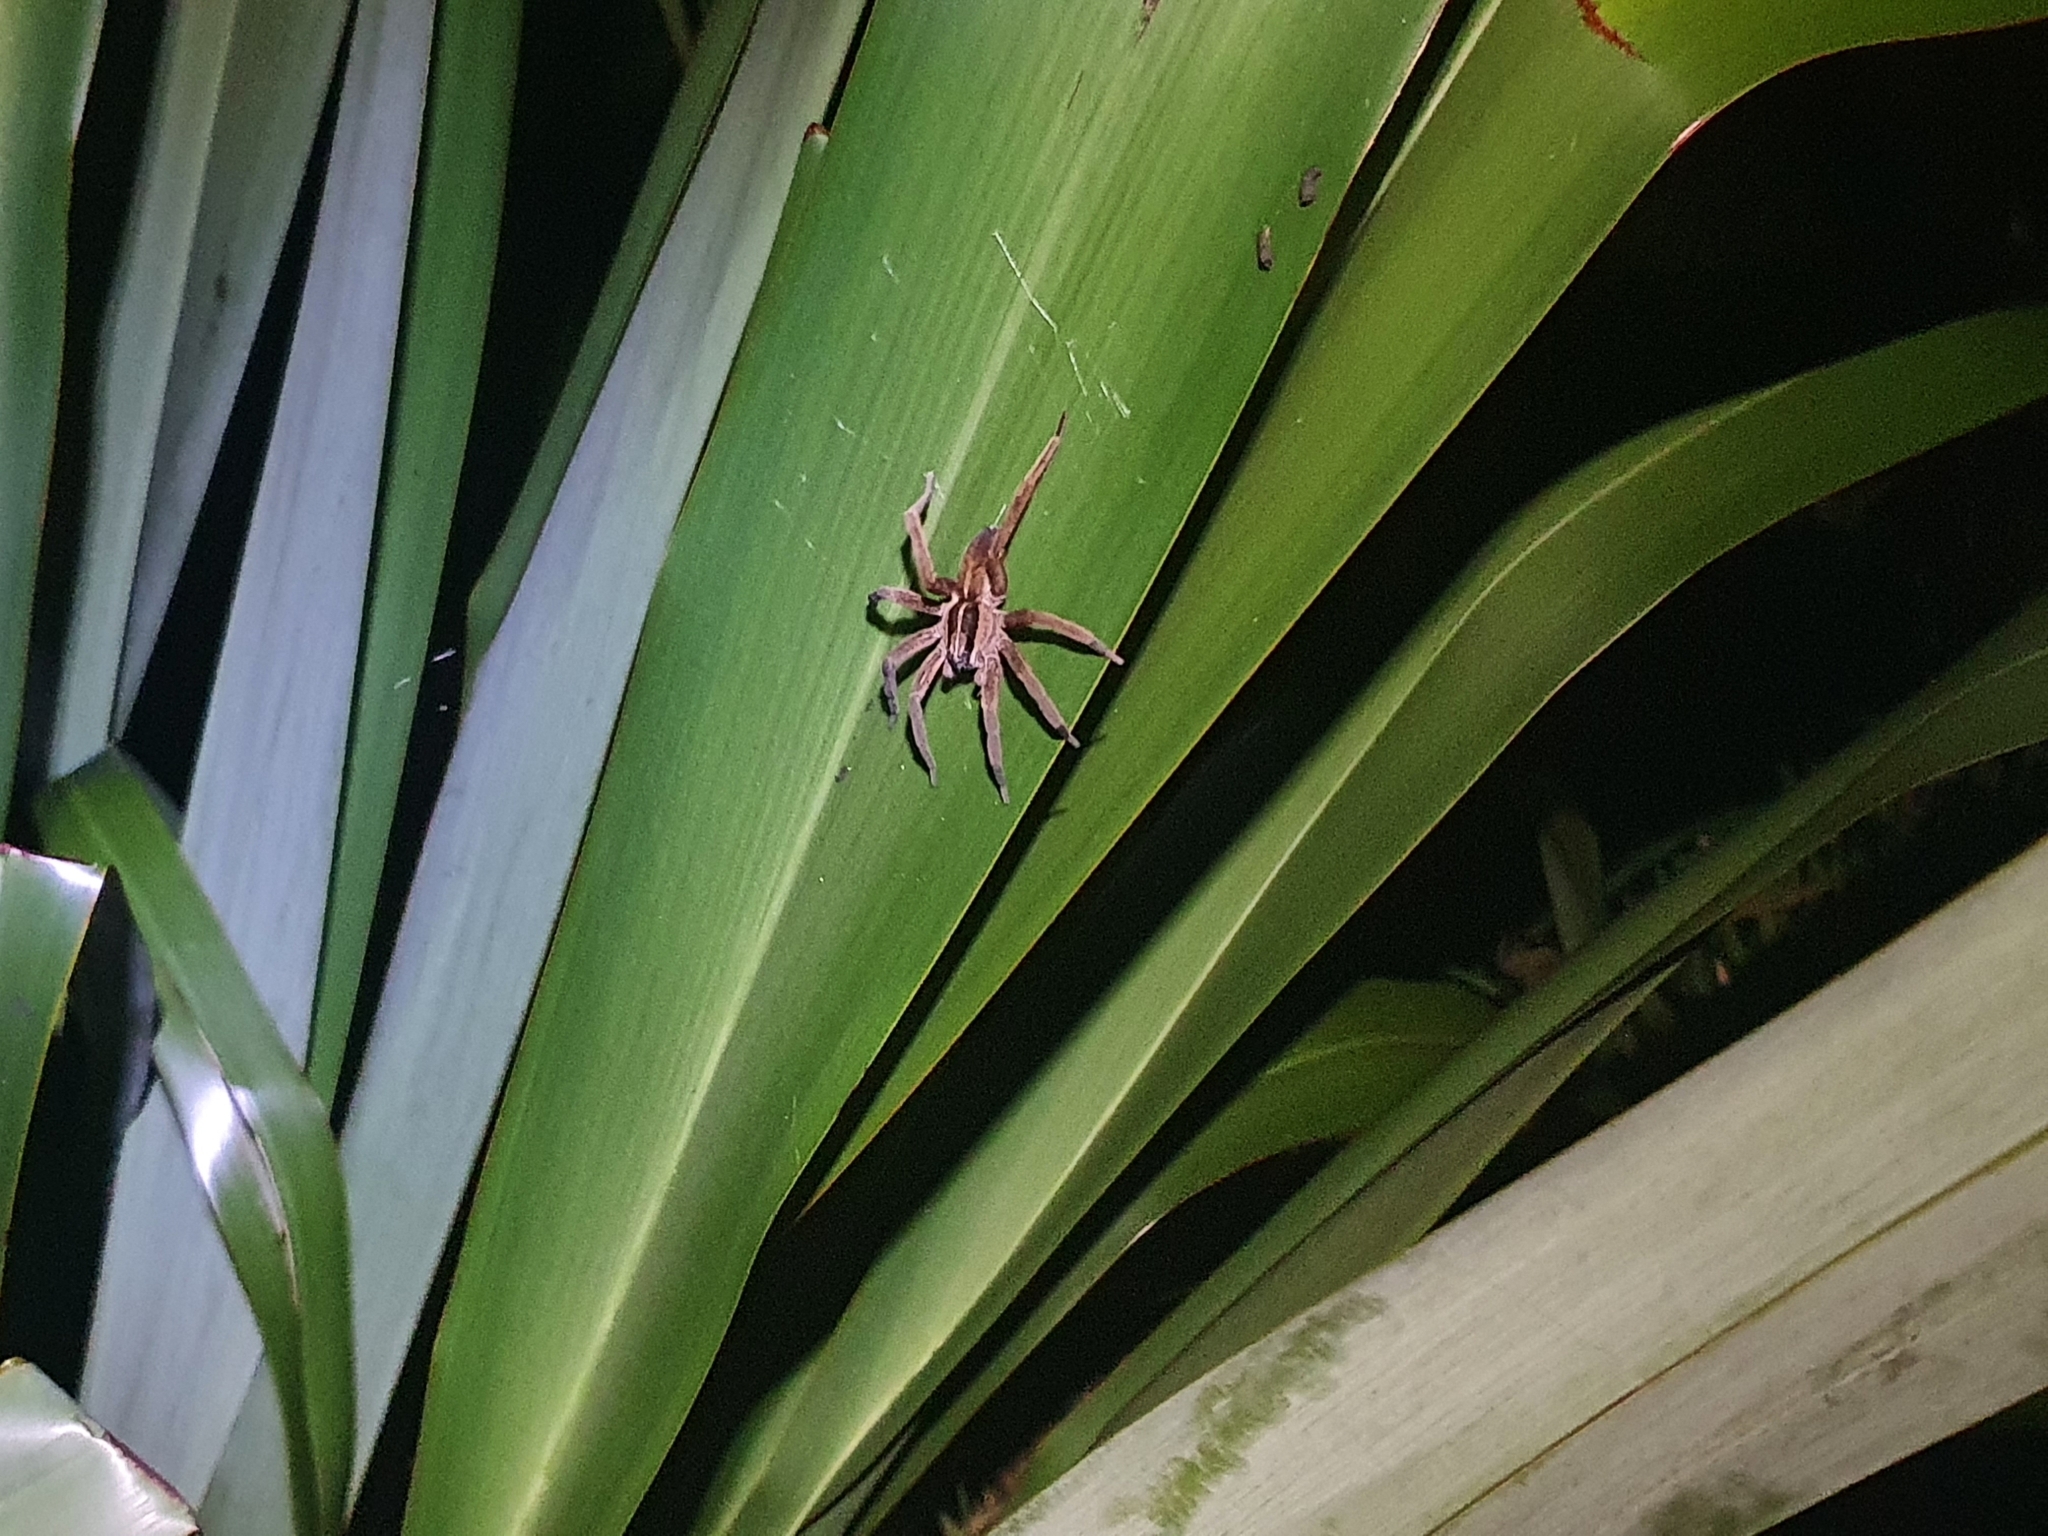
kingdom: Animalia
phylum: Arthropoda
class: Arachnida
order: Araneae
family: Pisauridae
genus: Dolomedes
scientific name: Dolomedes minor
